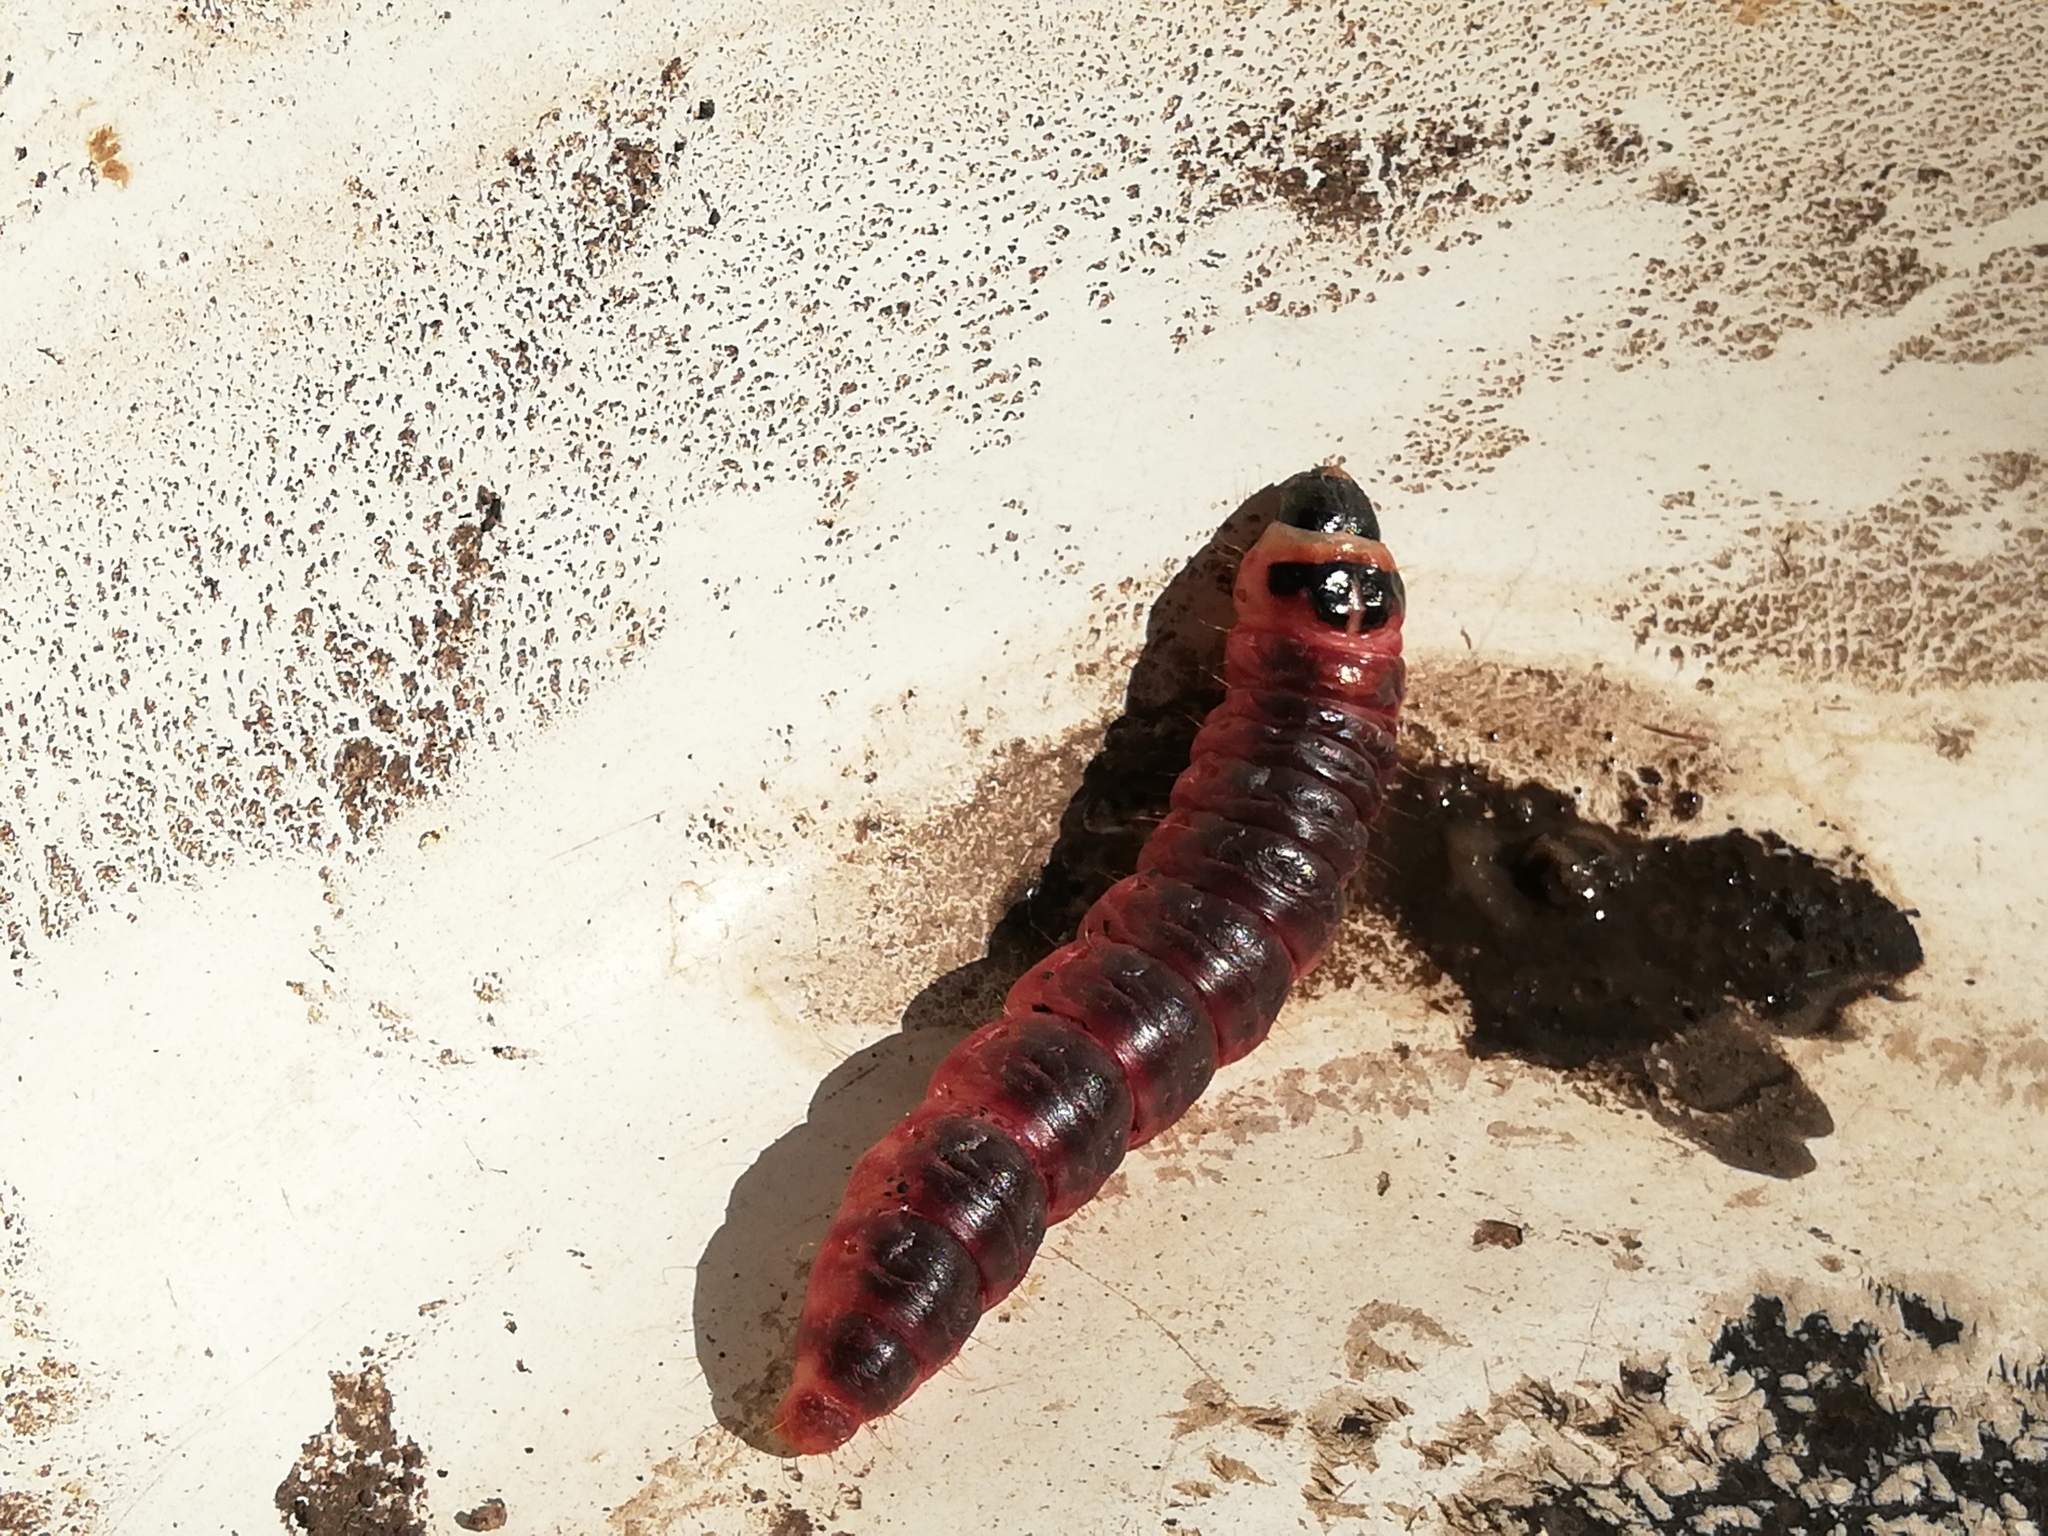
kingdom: Animalia
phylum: Arthropoda
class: Insecta
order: Lepidoptera
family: Cossidae
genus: Cossus
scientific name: Cossus cossus
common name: Goat moth
